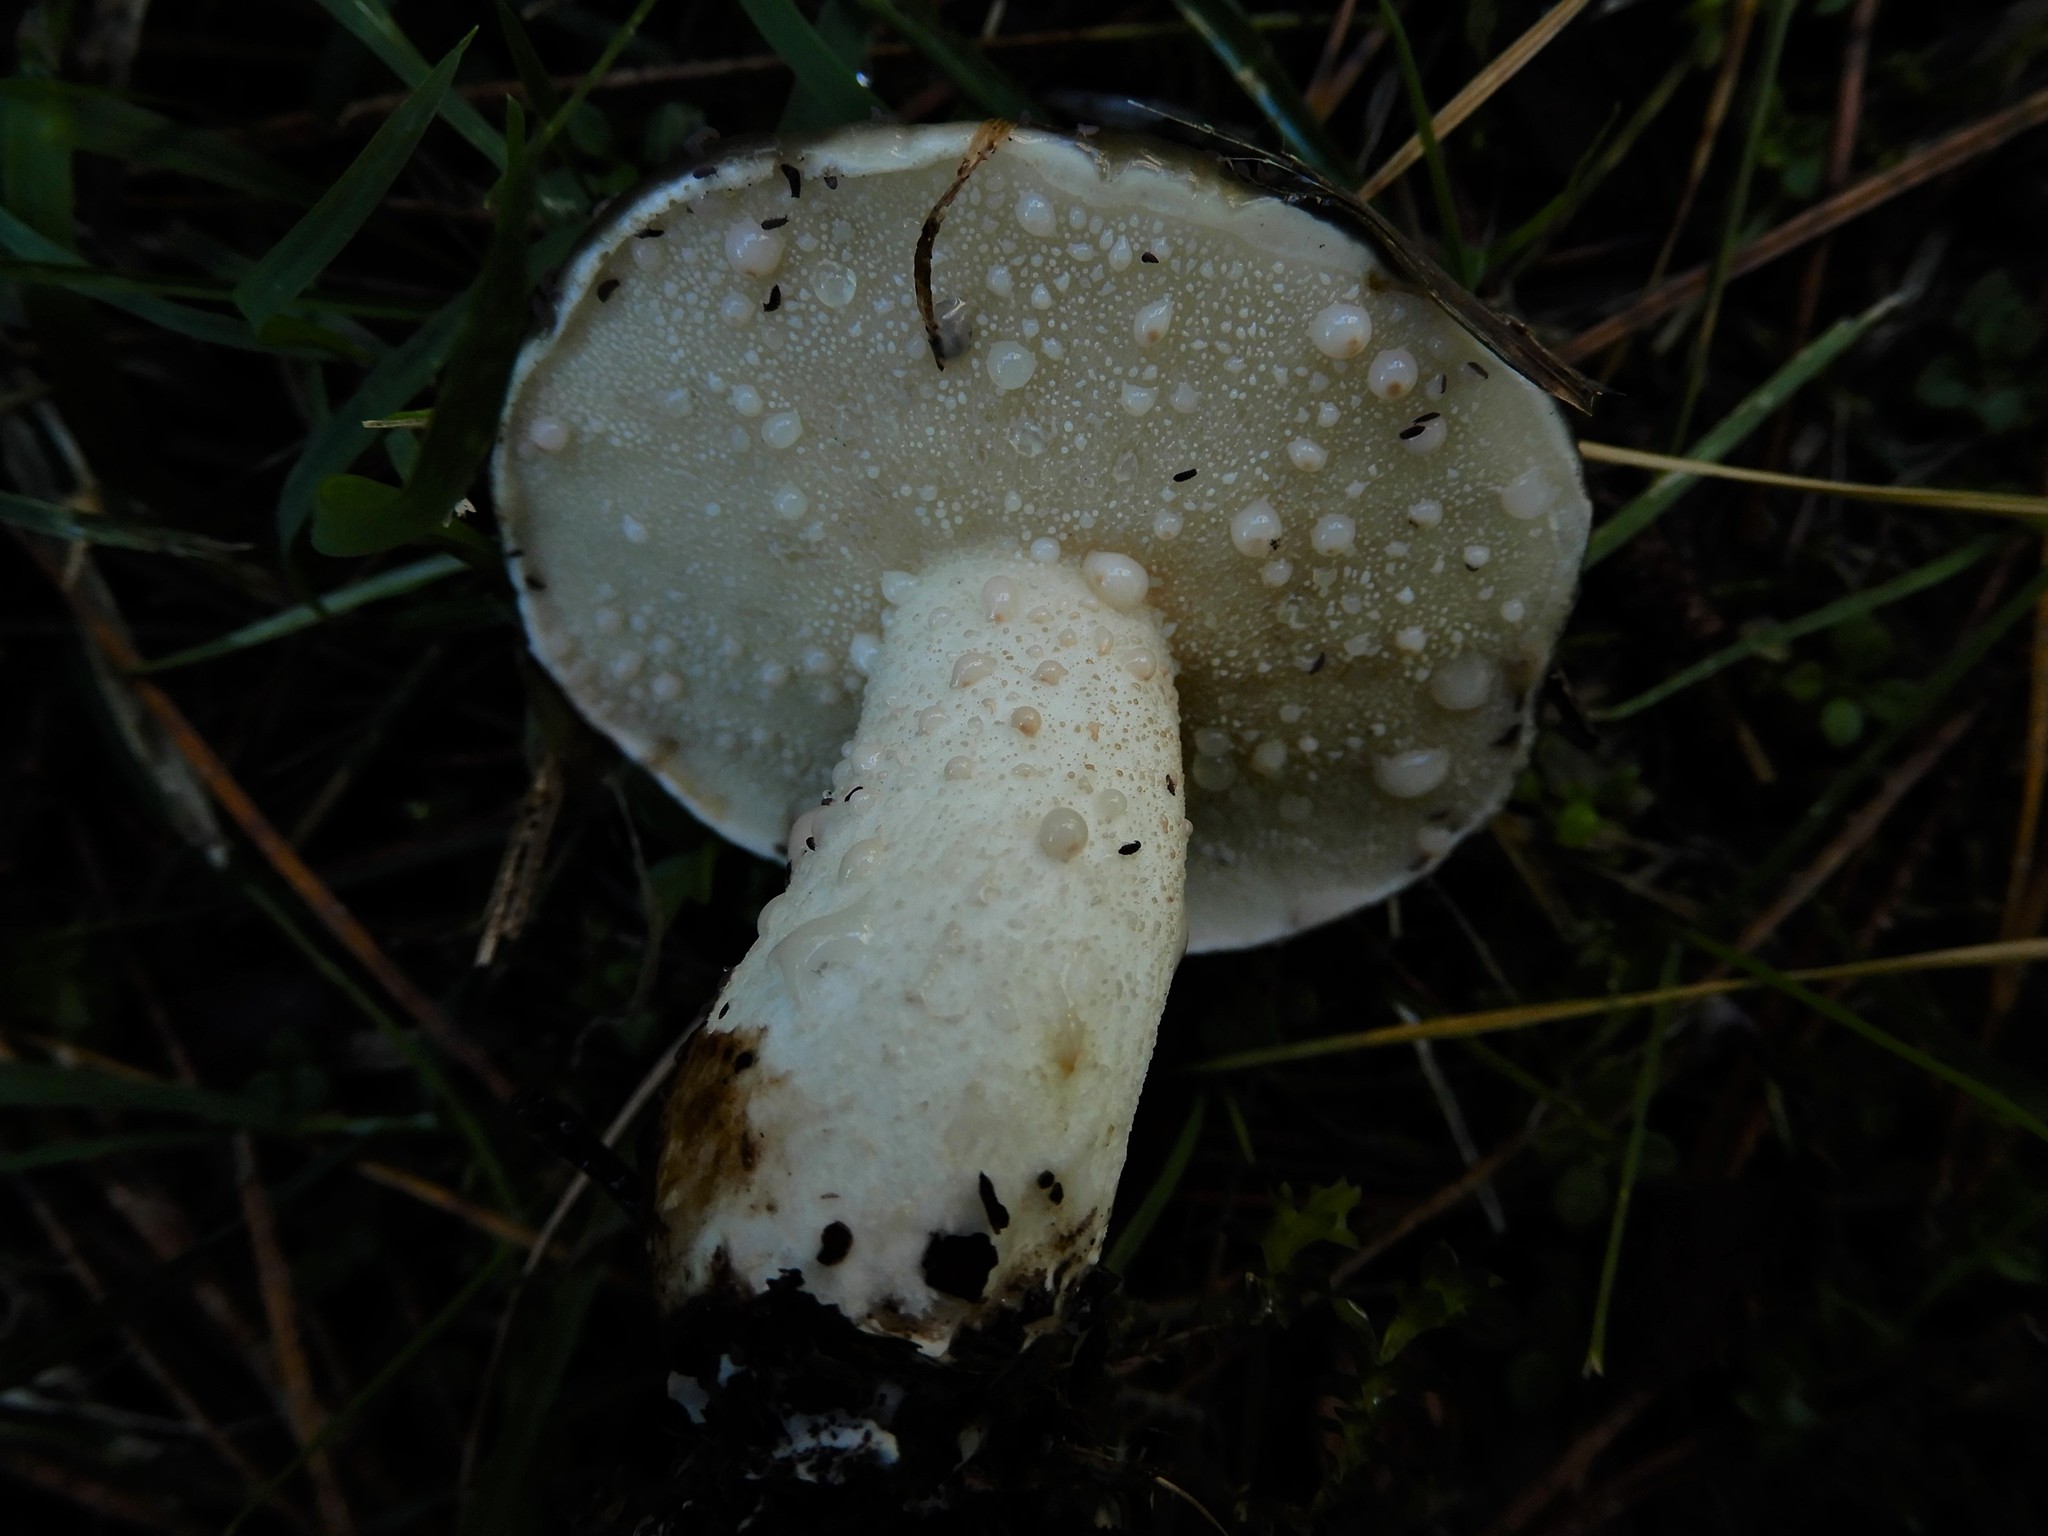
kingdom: Fungi
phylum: Basidiomycota
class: Agaricomycetes
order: Boletales
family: Suillaceae
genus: Suillus
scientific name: Suillus pungens
